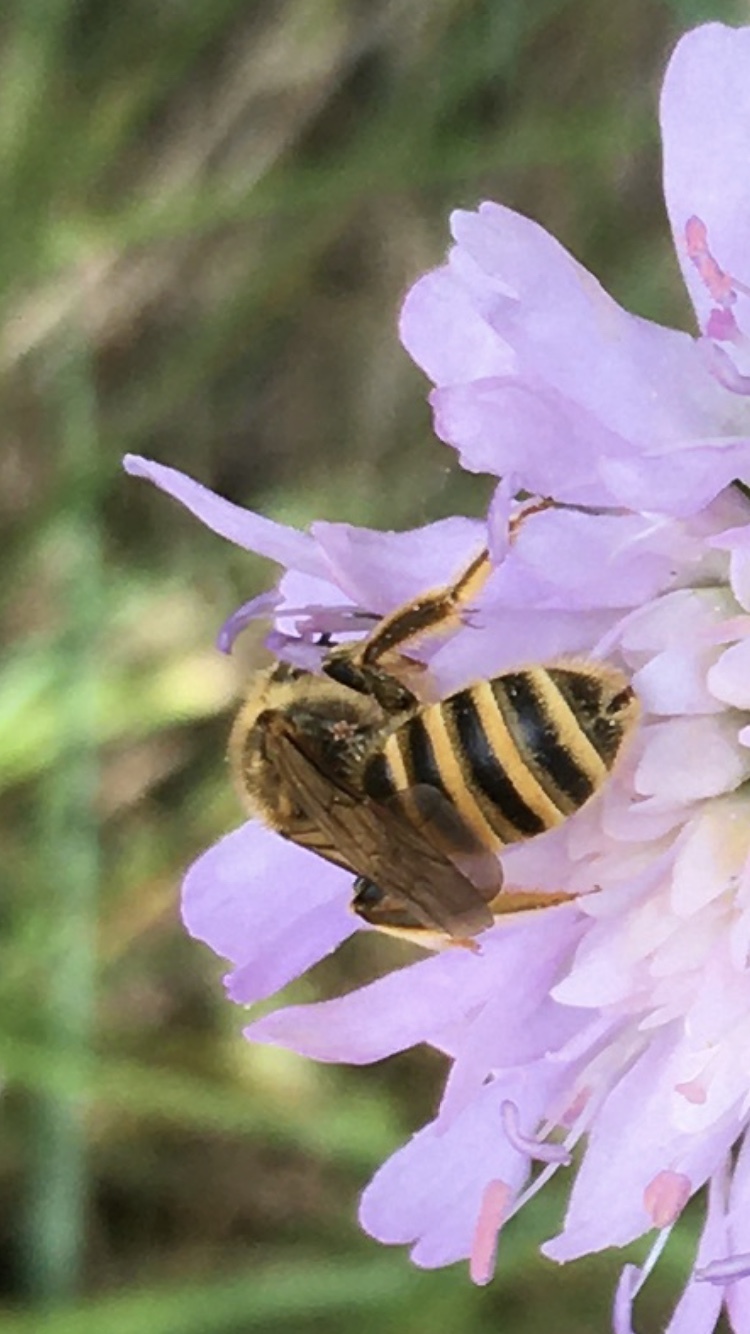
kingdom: Animalia
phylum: Arthropoda
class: Insecta
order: Hymenoptera
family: Halictidae
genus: Halictus
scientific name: Halictus scabiosae
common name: Great banded furrow bee
